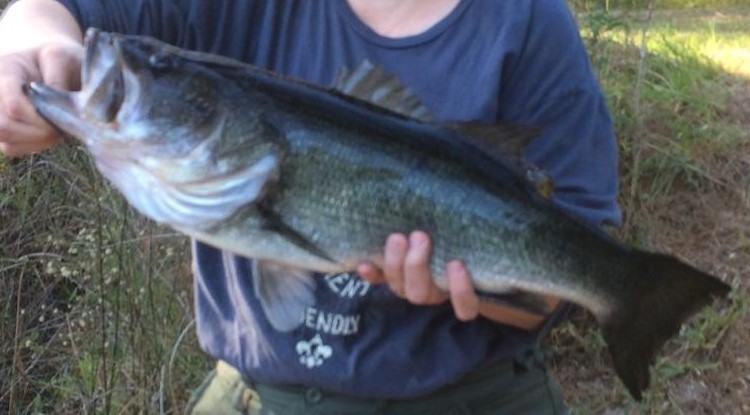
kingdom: Animalia
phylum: Chordata
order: Perciformes
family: Centrarchidae
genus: Micropterus
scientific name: Micropterus salmoides
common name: Largemouth bass
